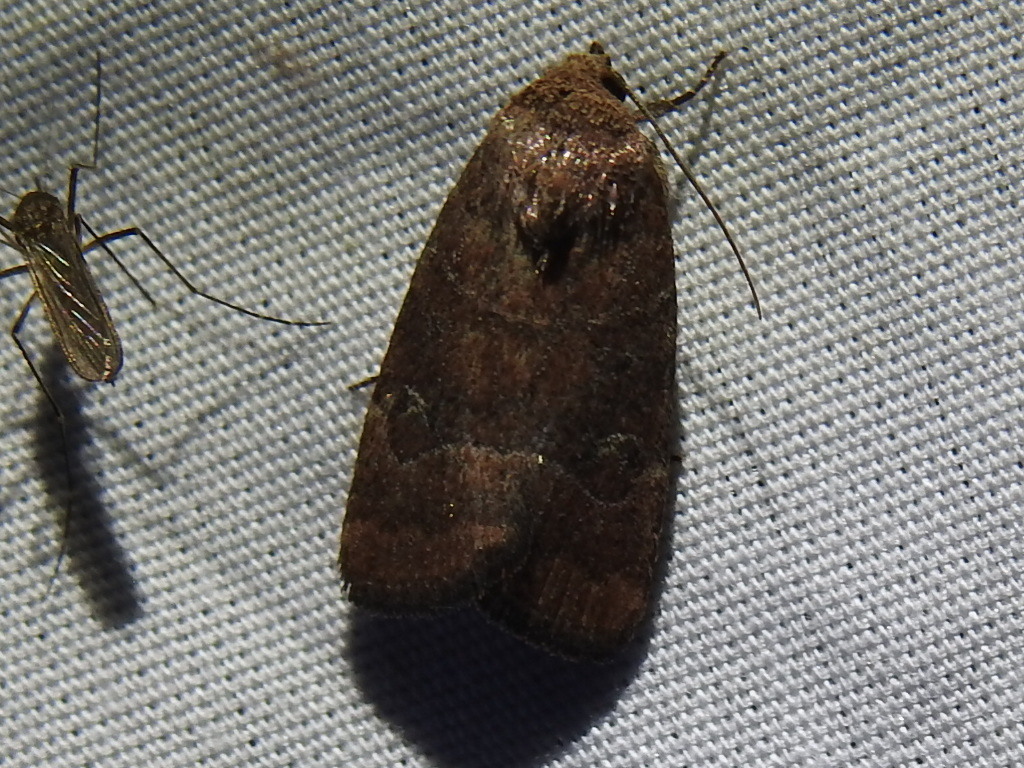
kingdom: Animalia
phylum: Arthropoda
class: Insecta
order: Lepidoptera
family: Noctuidae
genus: Elaphria
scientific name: Elaphria grata
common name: Grateful midget moth
